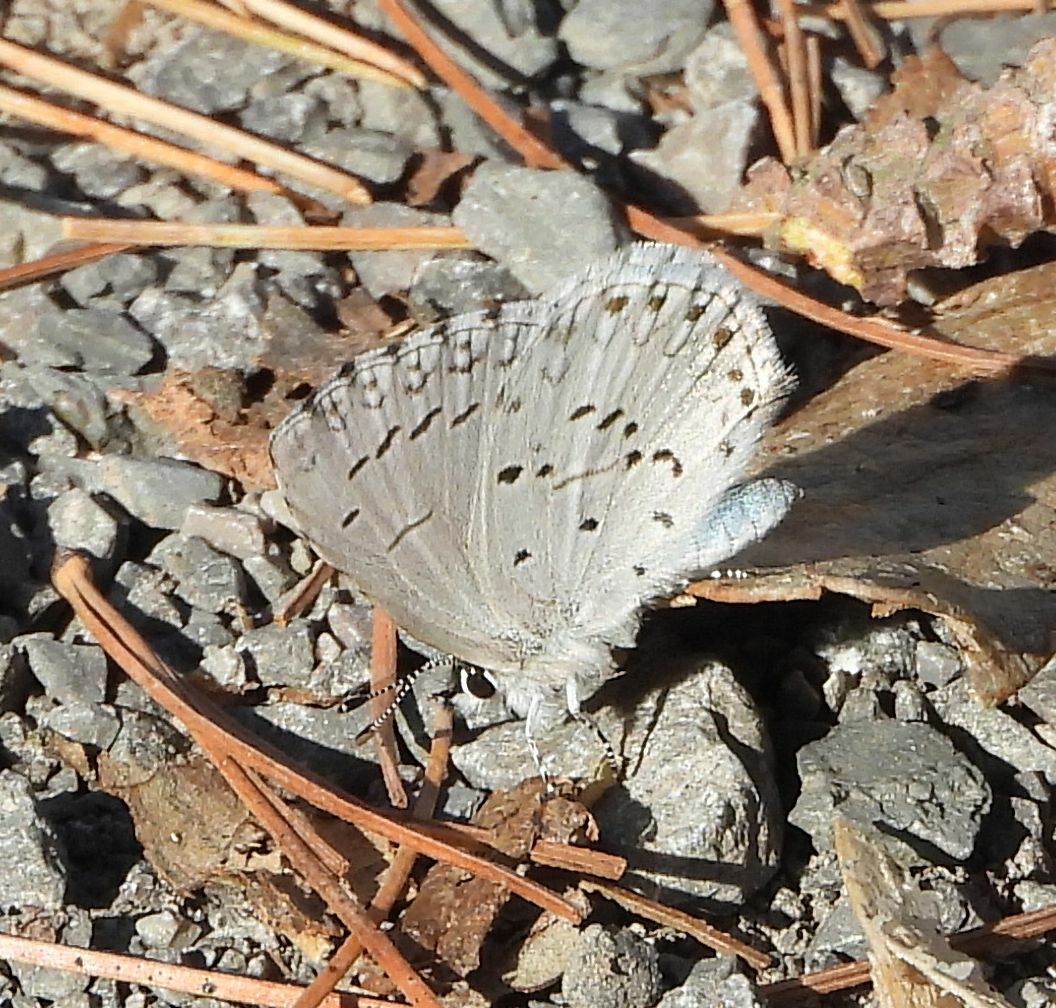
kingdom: Animalia
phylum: Arthropoda
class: Insecta
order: Lepidoptera
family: Lycaenidae
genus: Celastrina
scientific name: Celastrina lucia
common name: Lucia azure
